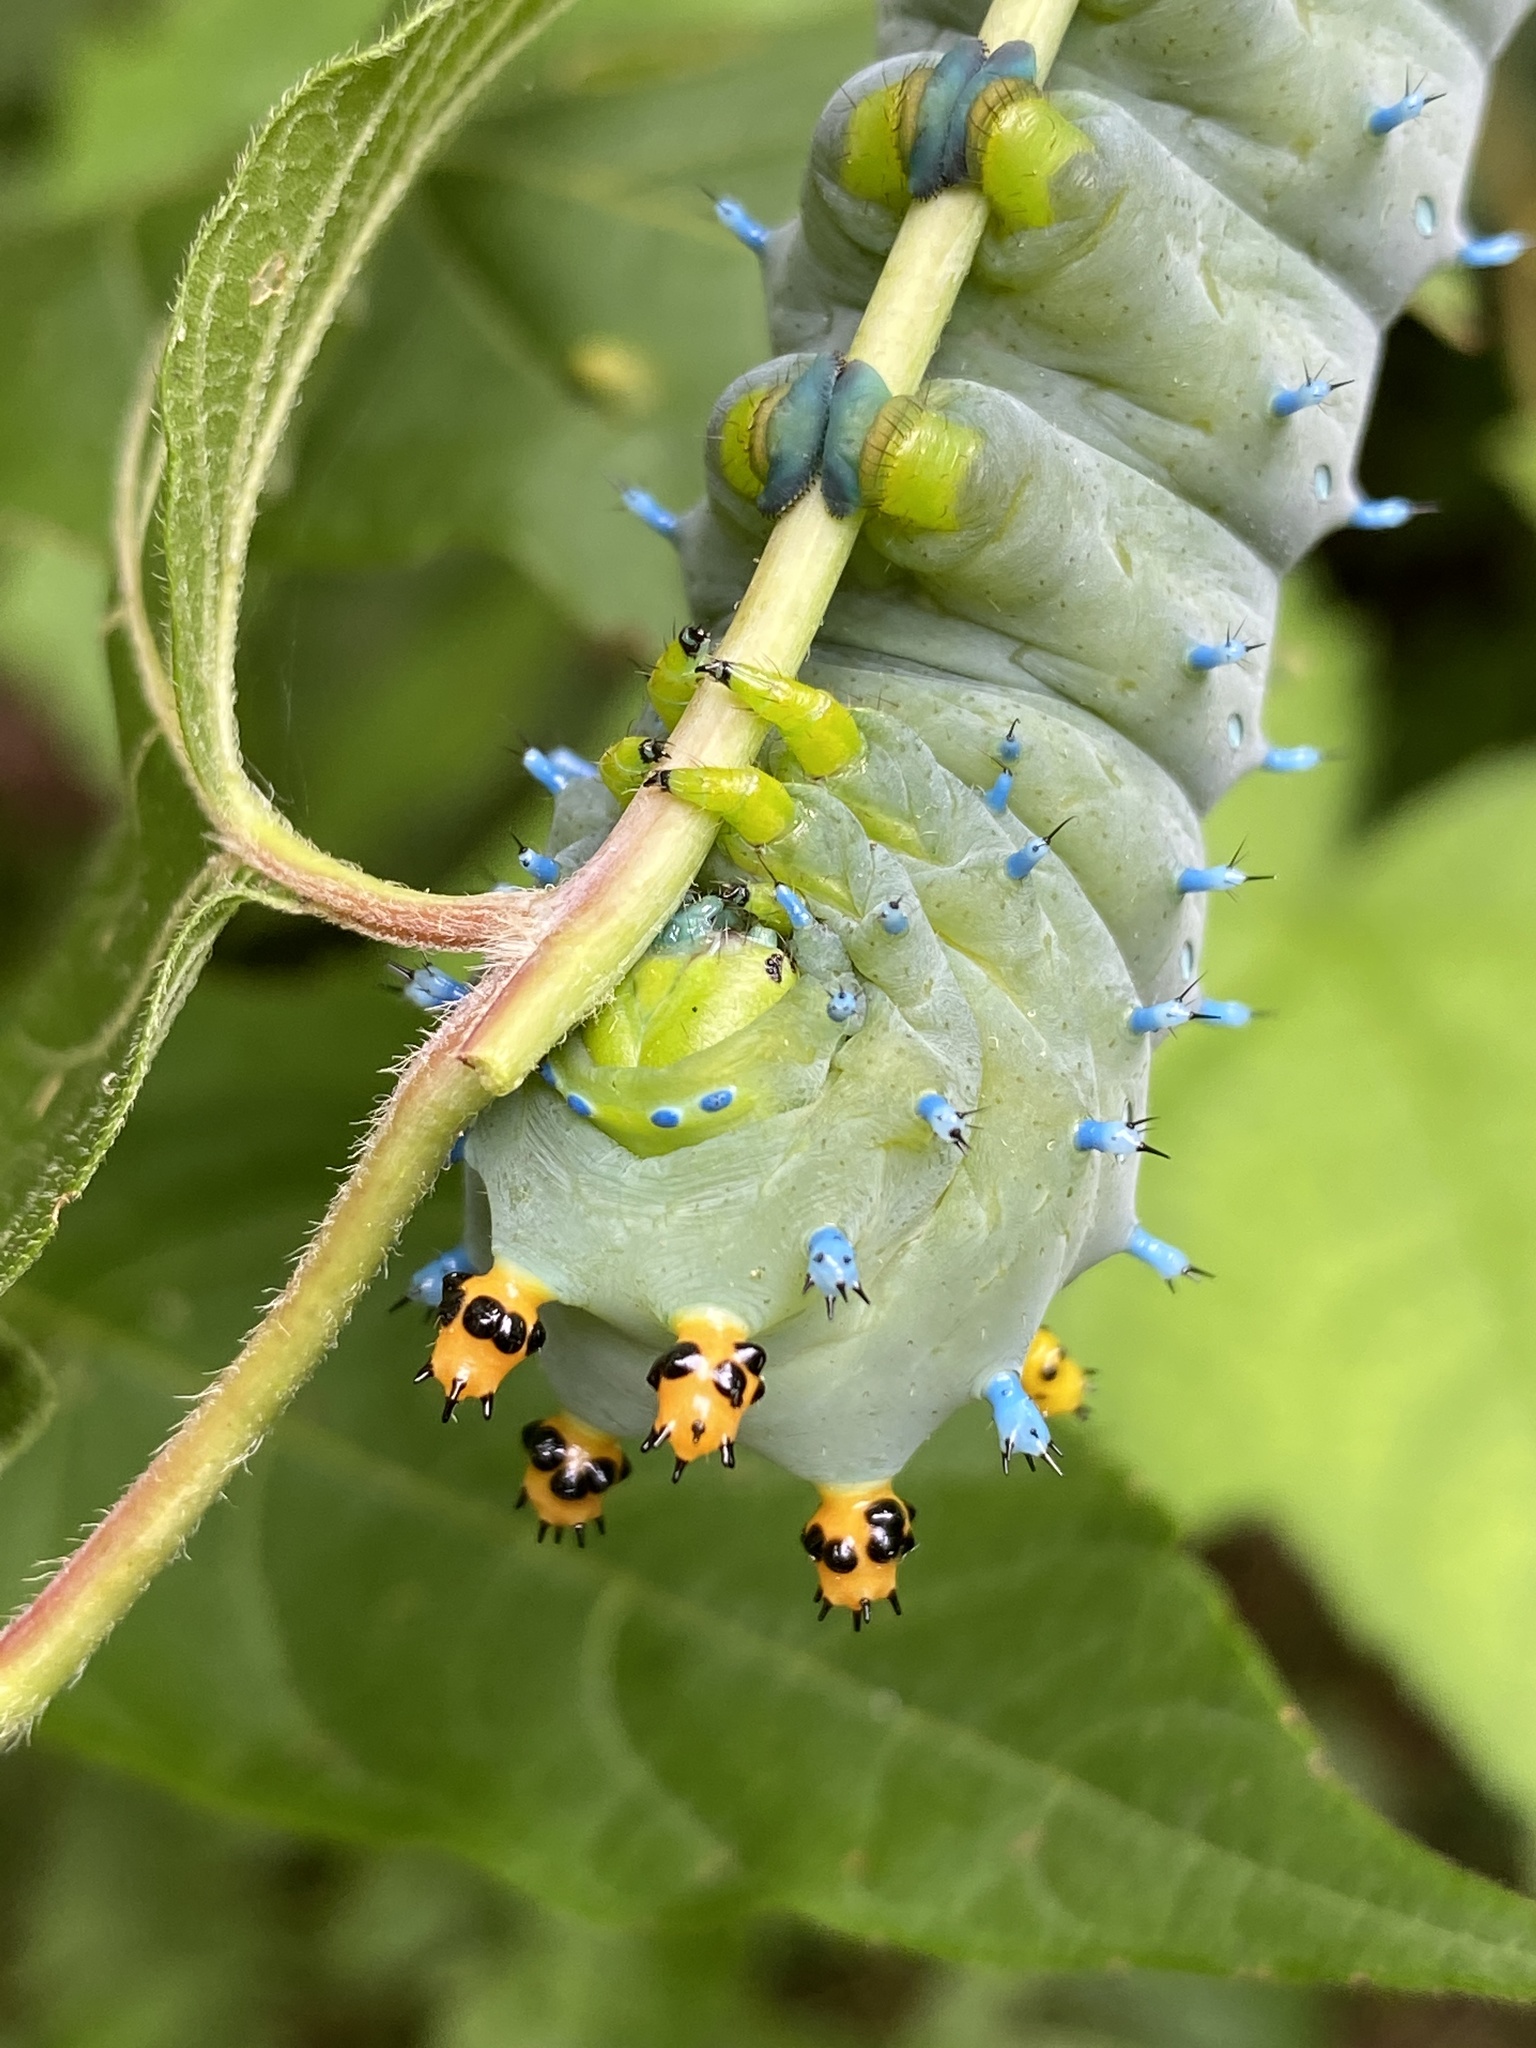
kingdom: Animalia
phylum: Arthropoda
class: Insecta
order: Lepidoptera
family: Saturniidae
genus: Hyalophora
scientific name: Hyalophora cecropia
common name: Cecropia silkmoth
